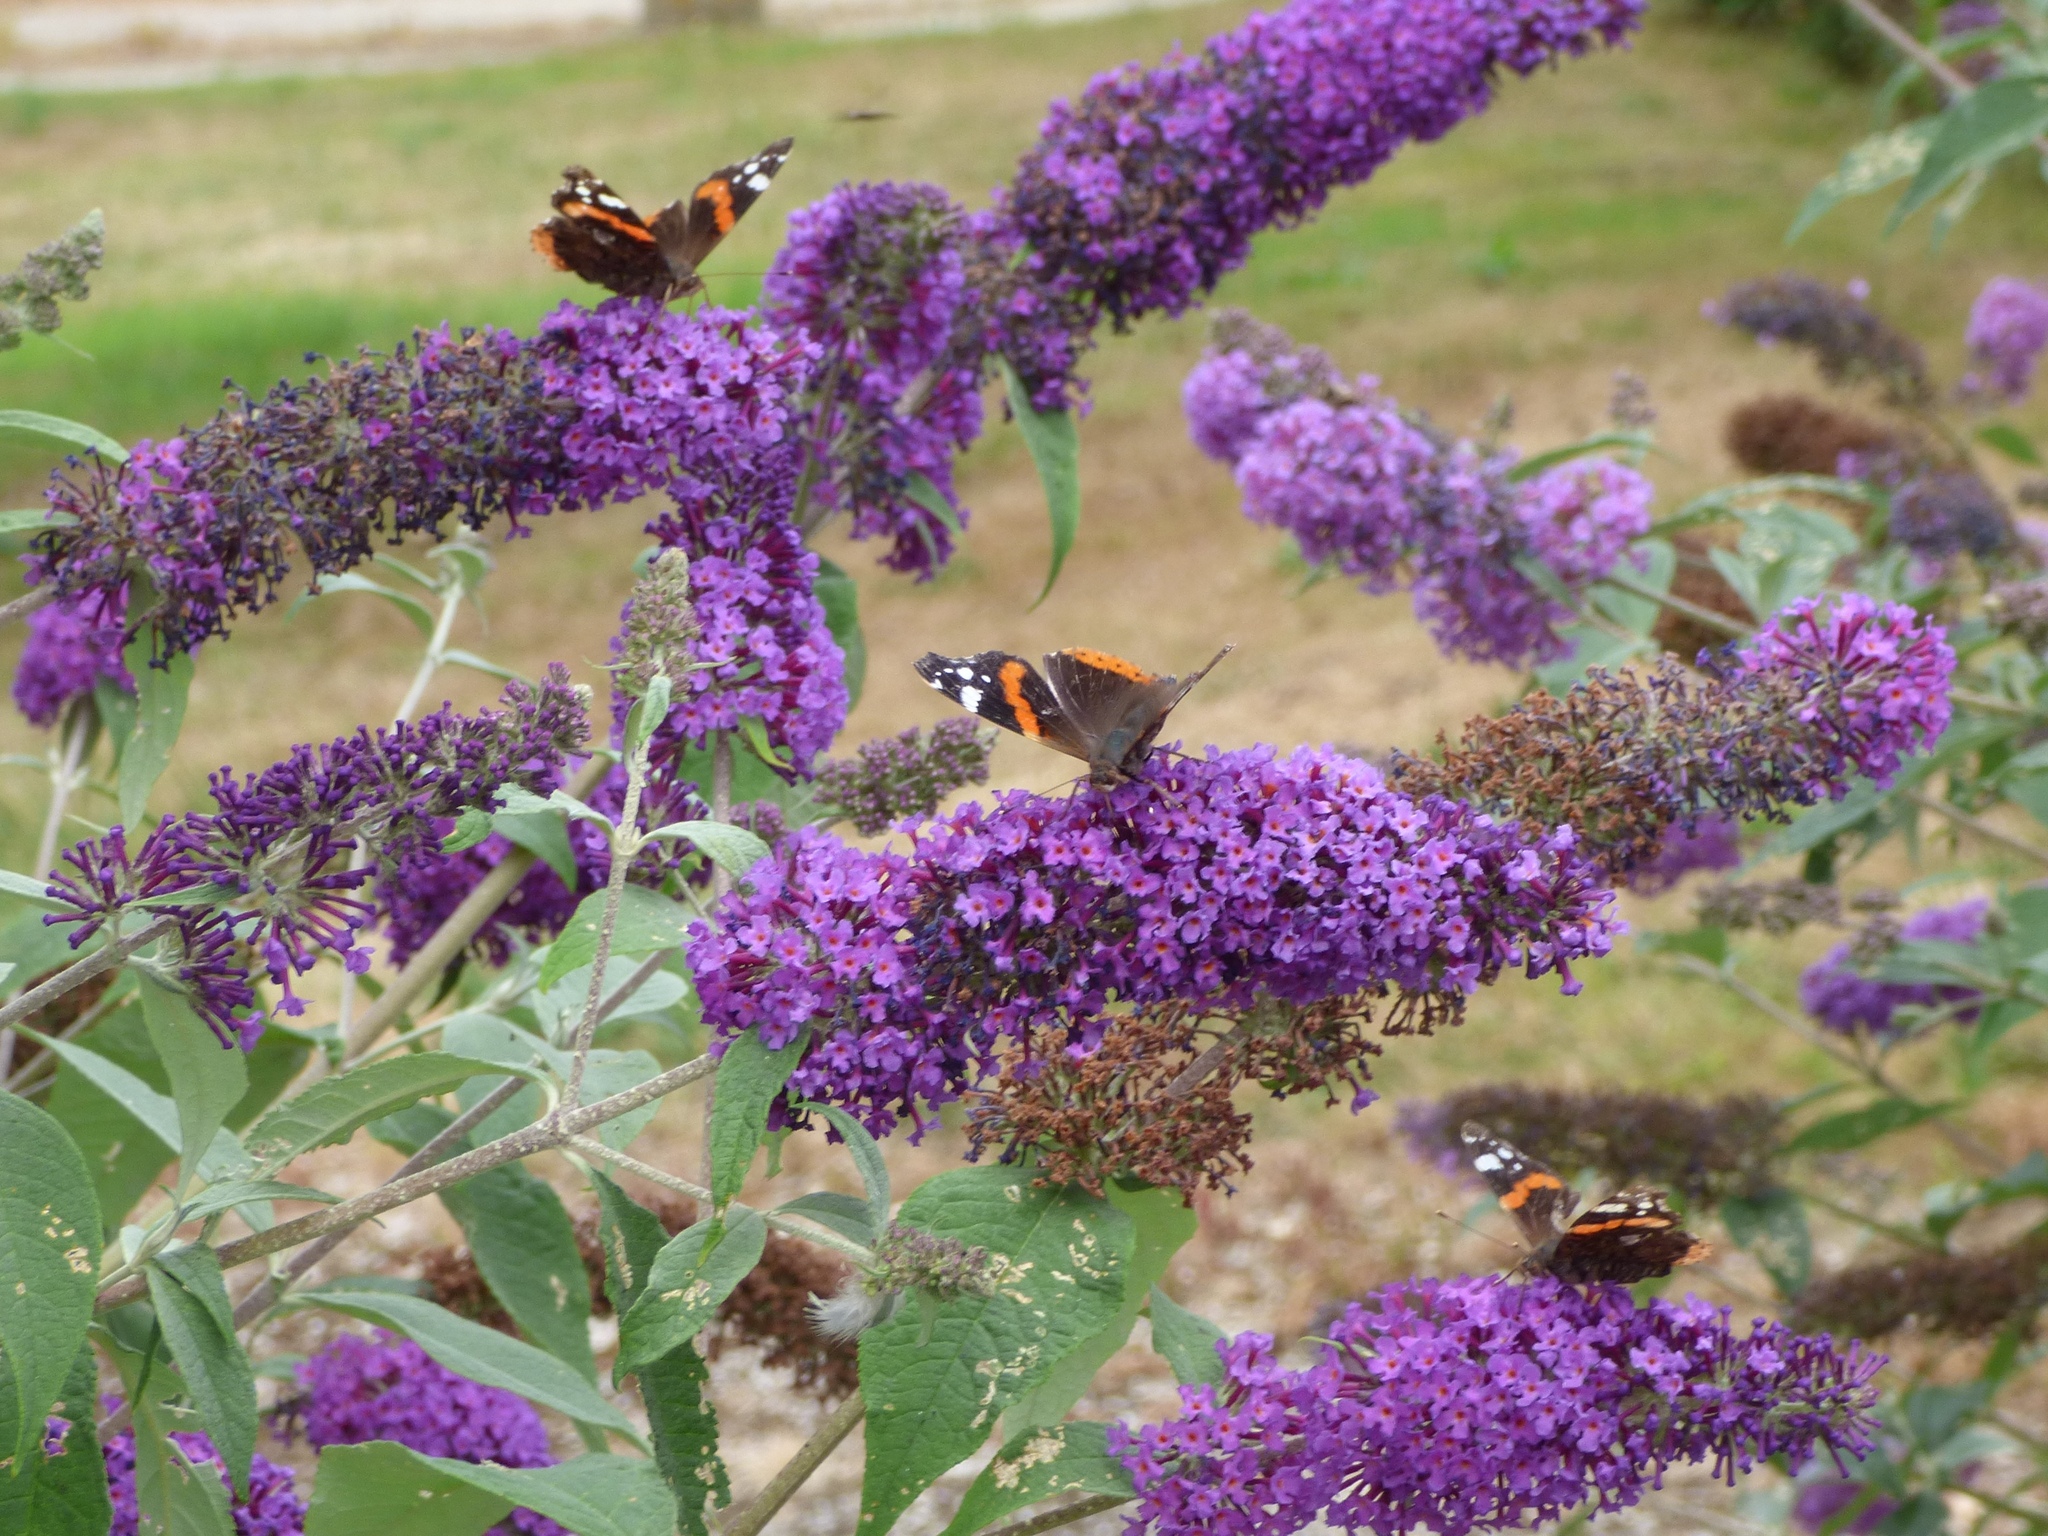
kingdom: Animalia
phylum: Arthropoda
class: Insecta
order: Lepidoptera
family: Nymphalidae
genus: Vanessa
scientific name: Vanessa atalanta
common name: Red admiral
